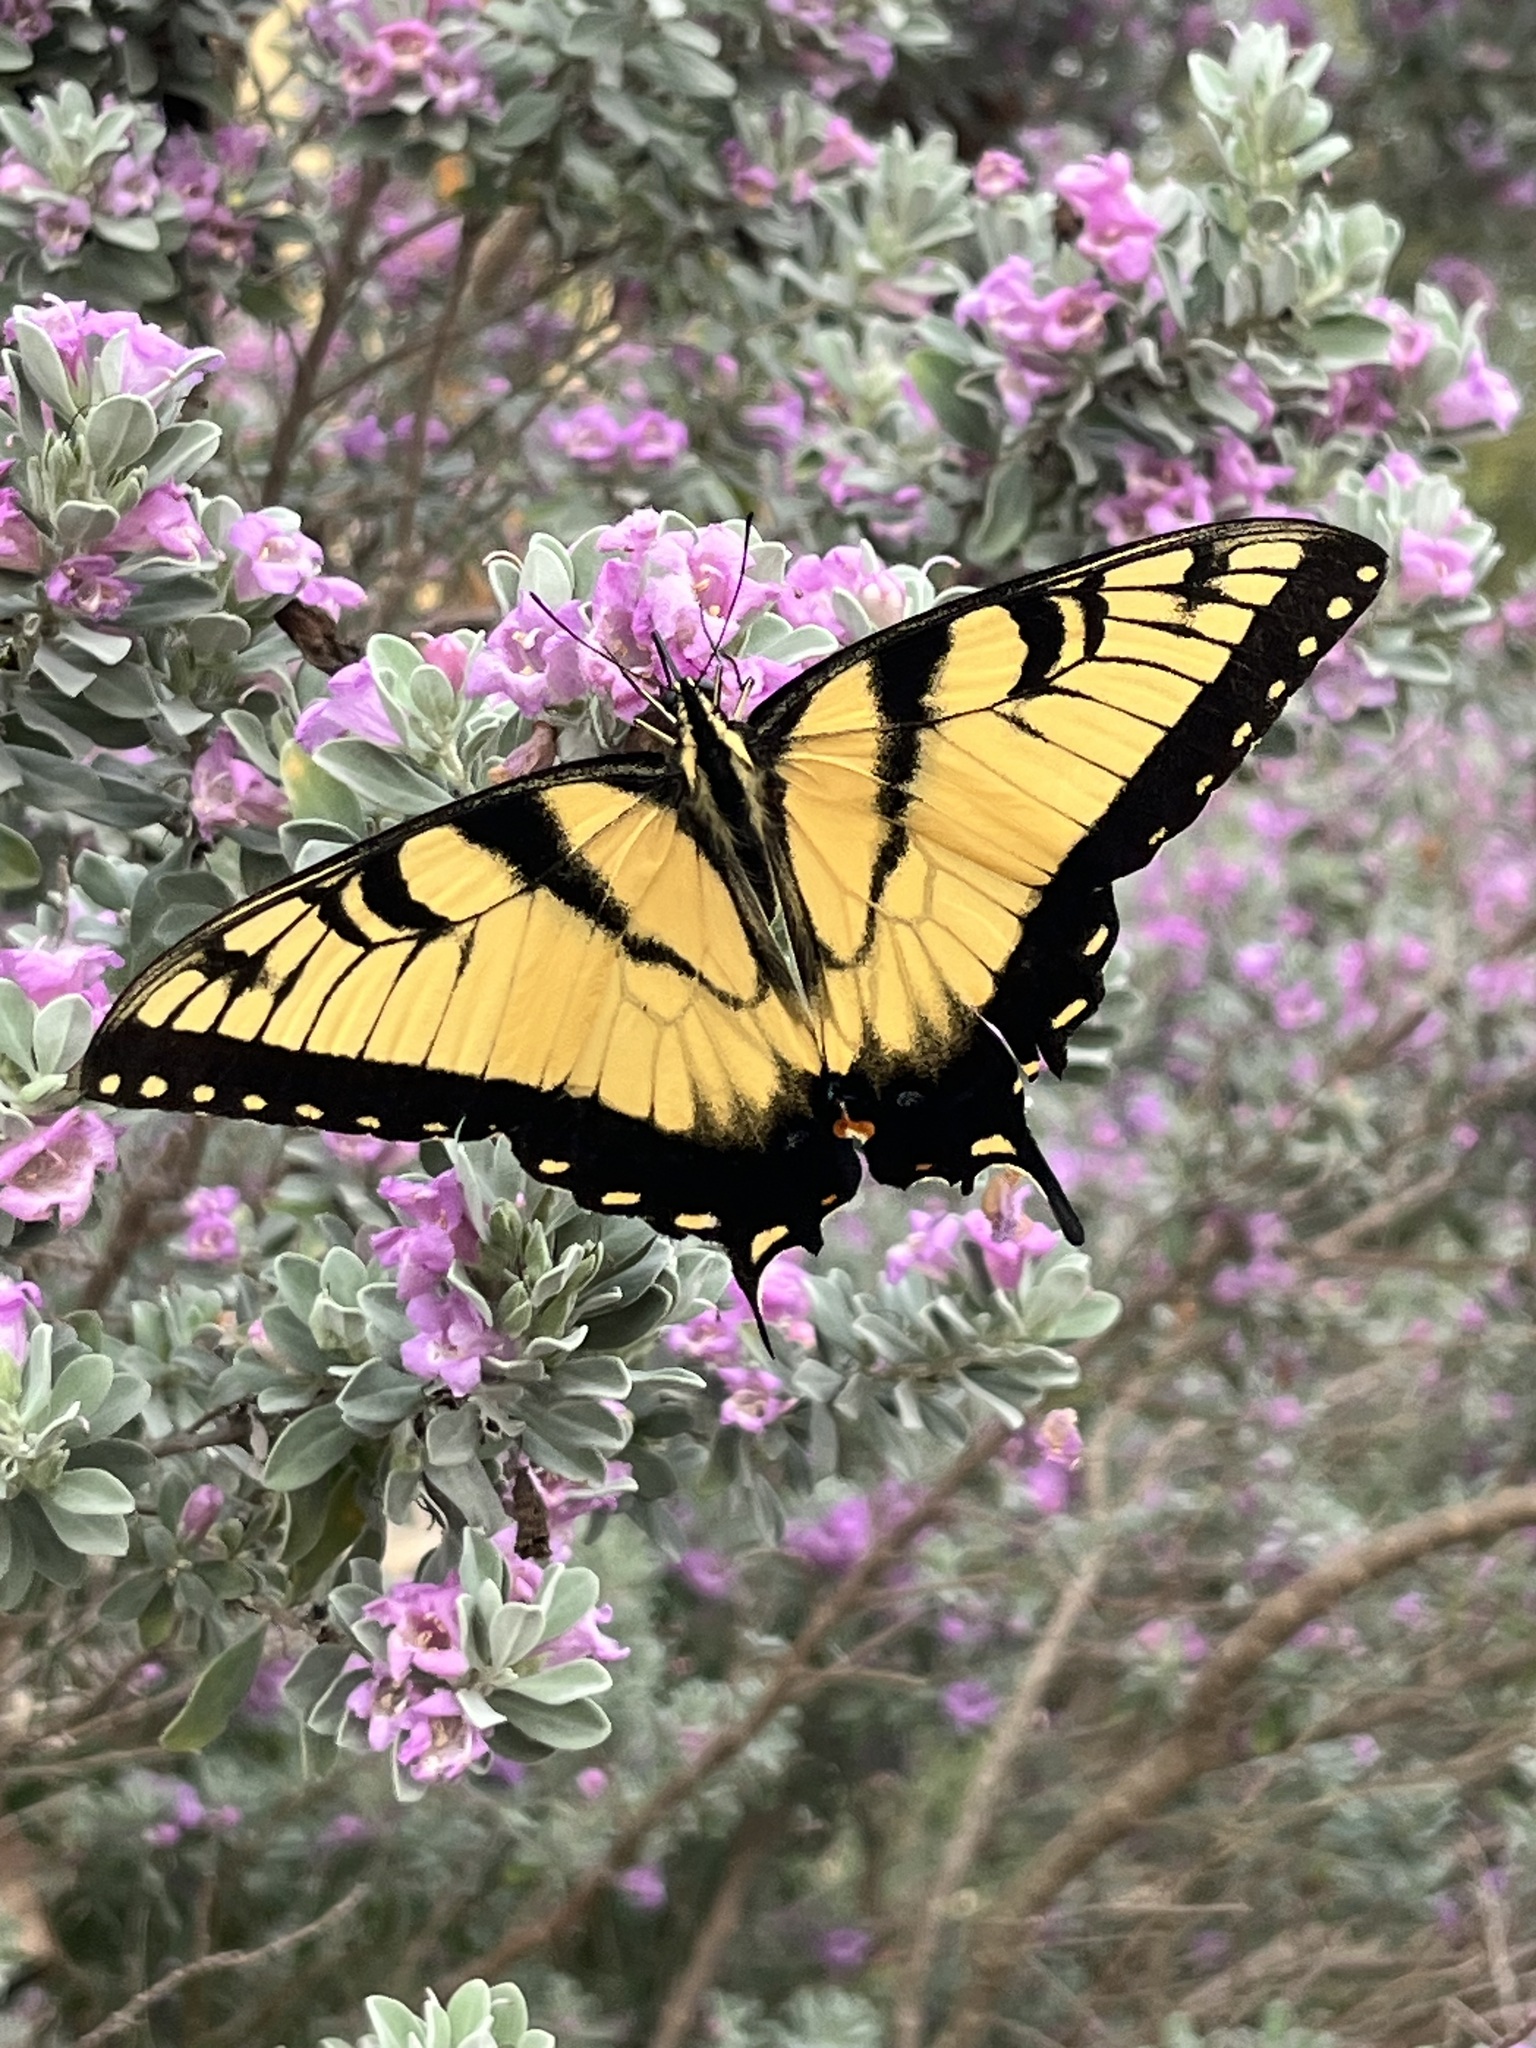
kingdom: Animalia
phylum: Arthropoda
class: Insecta
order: Lepidoptera
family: Papilionidae
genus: Papilio
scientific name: Papilio glaucus
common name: Tiger swallowtail
